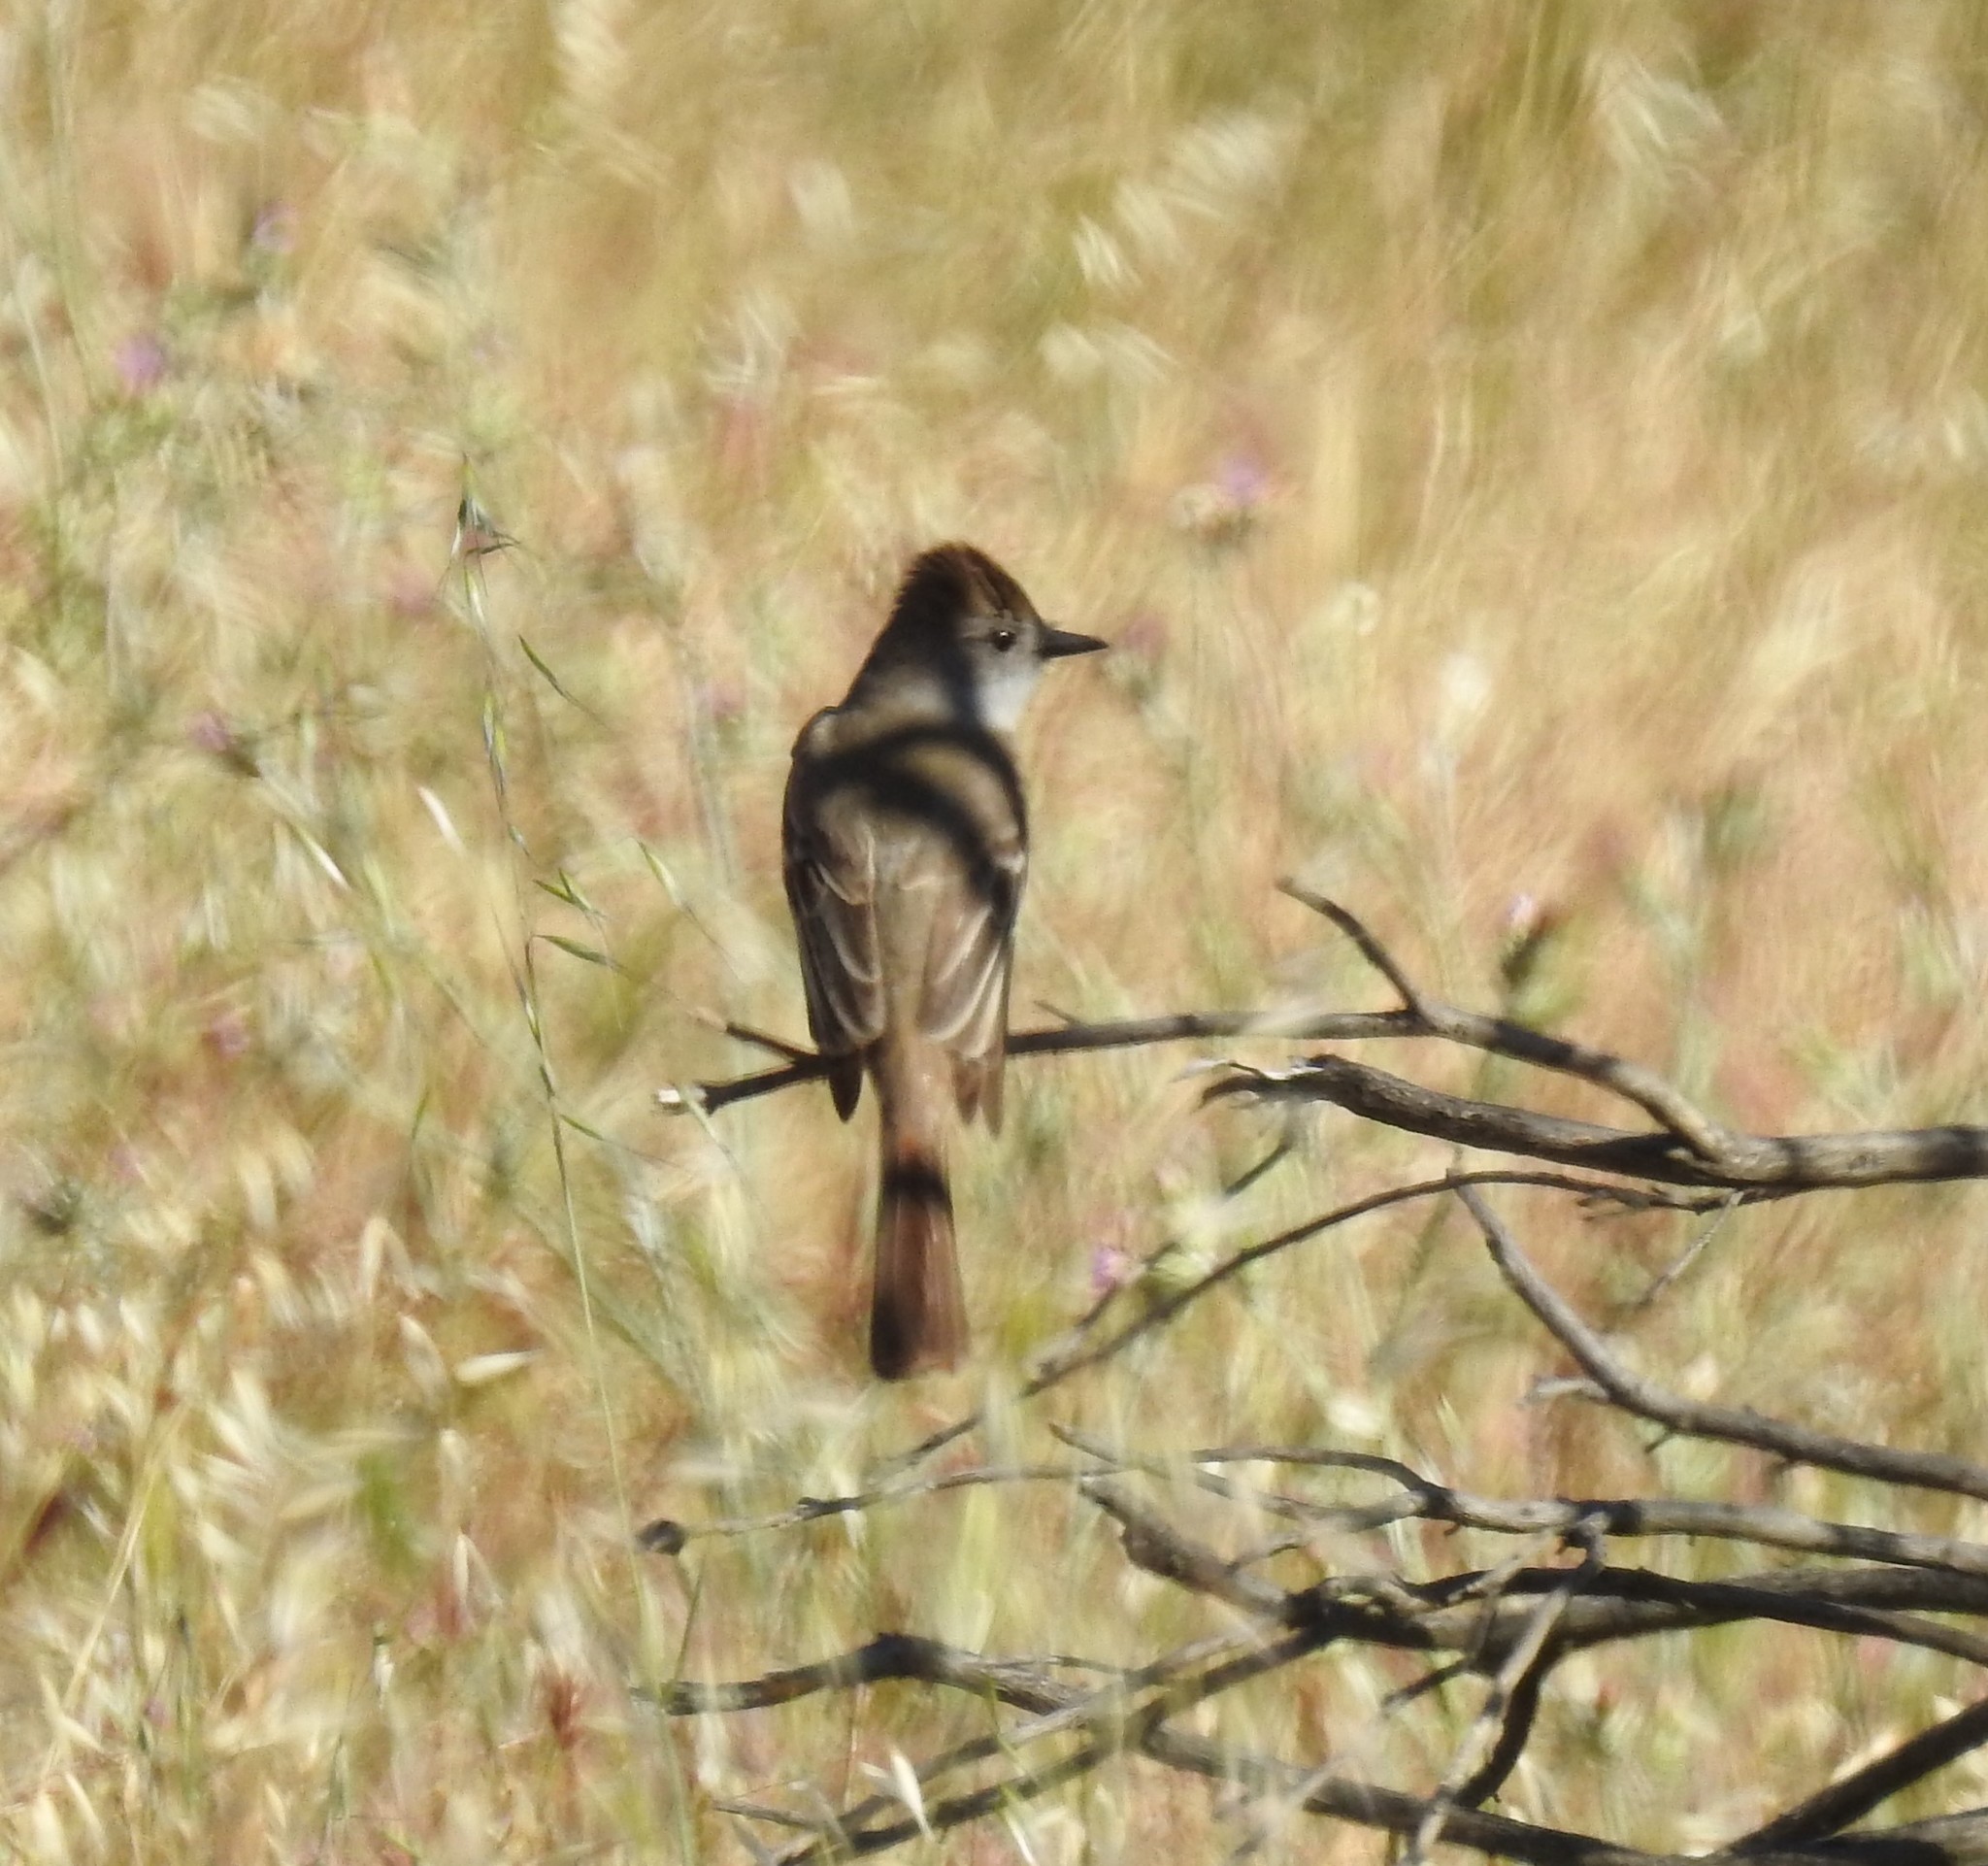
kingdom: Animalia
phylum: Chordata
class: Aves
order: Passeriformes
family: Tyrannidae
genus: Myiarchus
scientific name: Myiarchus cinerascens
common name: Ash-throated flycatcher
